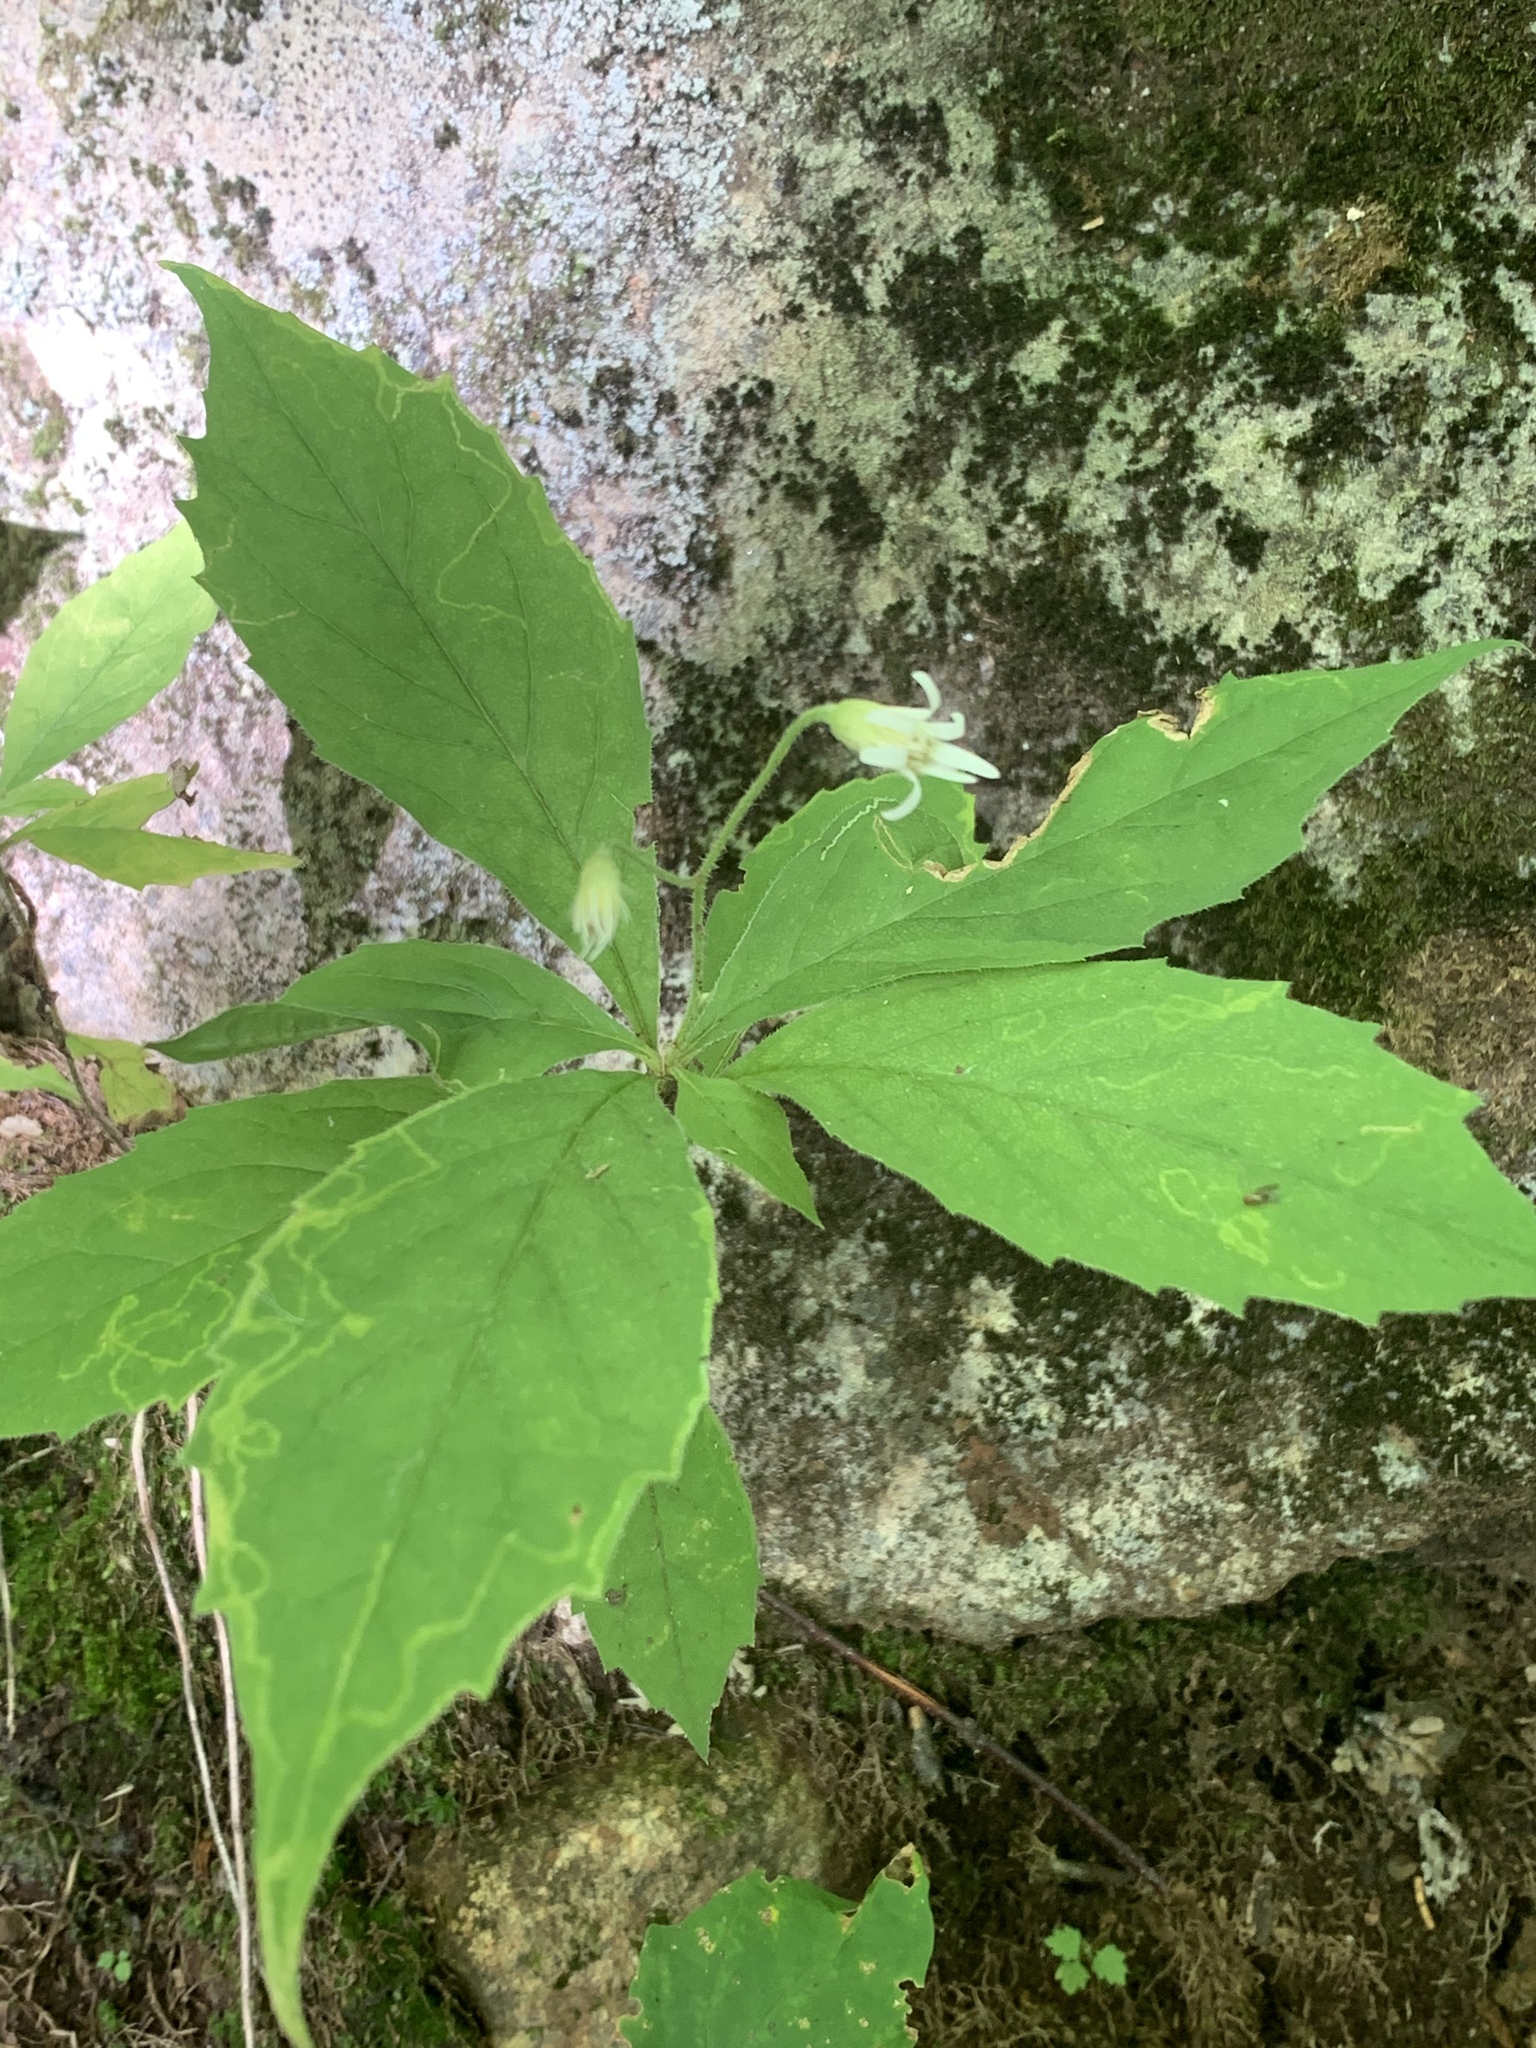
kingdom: Plantae
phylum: Tracheophyta
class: Magnoliopsida
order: Asterales
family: Asteraceae
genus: Oclemena
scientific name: Oclemena acuminata
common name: Mountain aster
